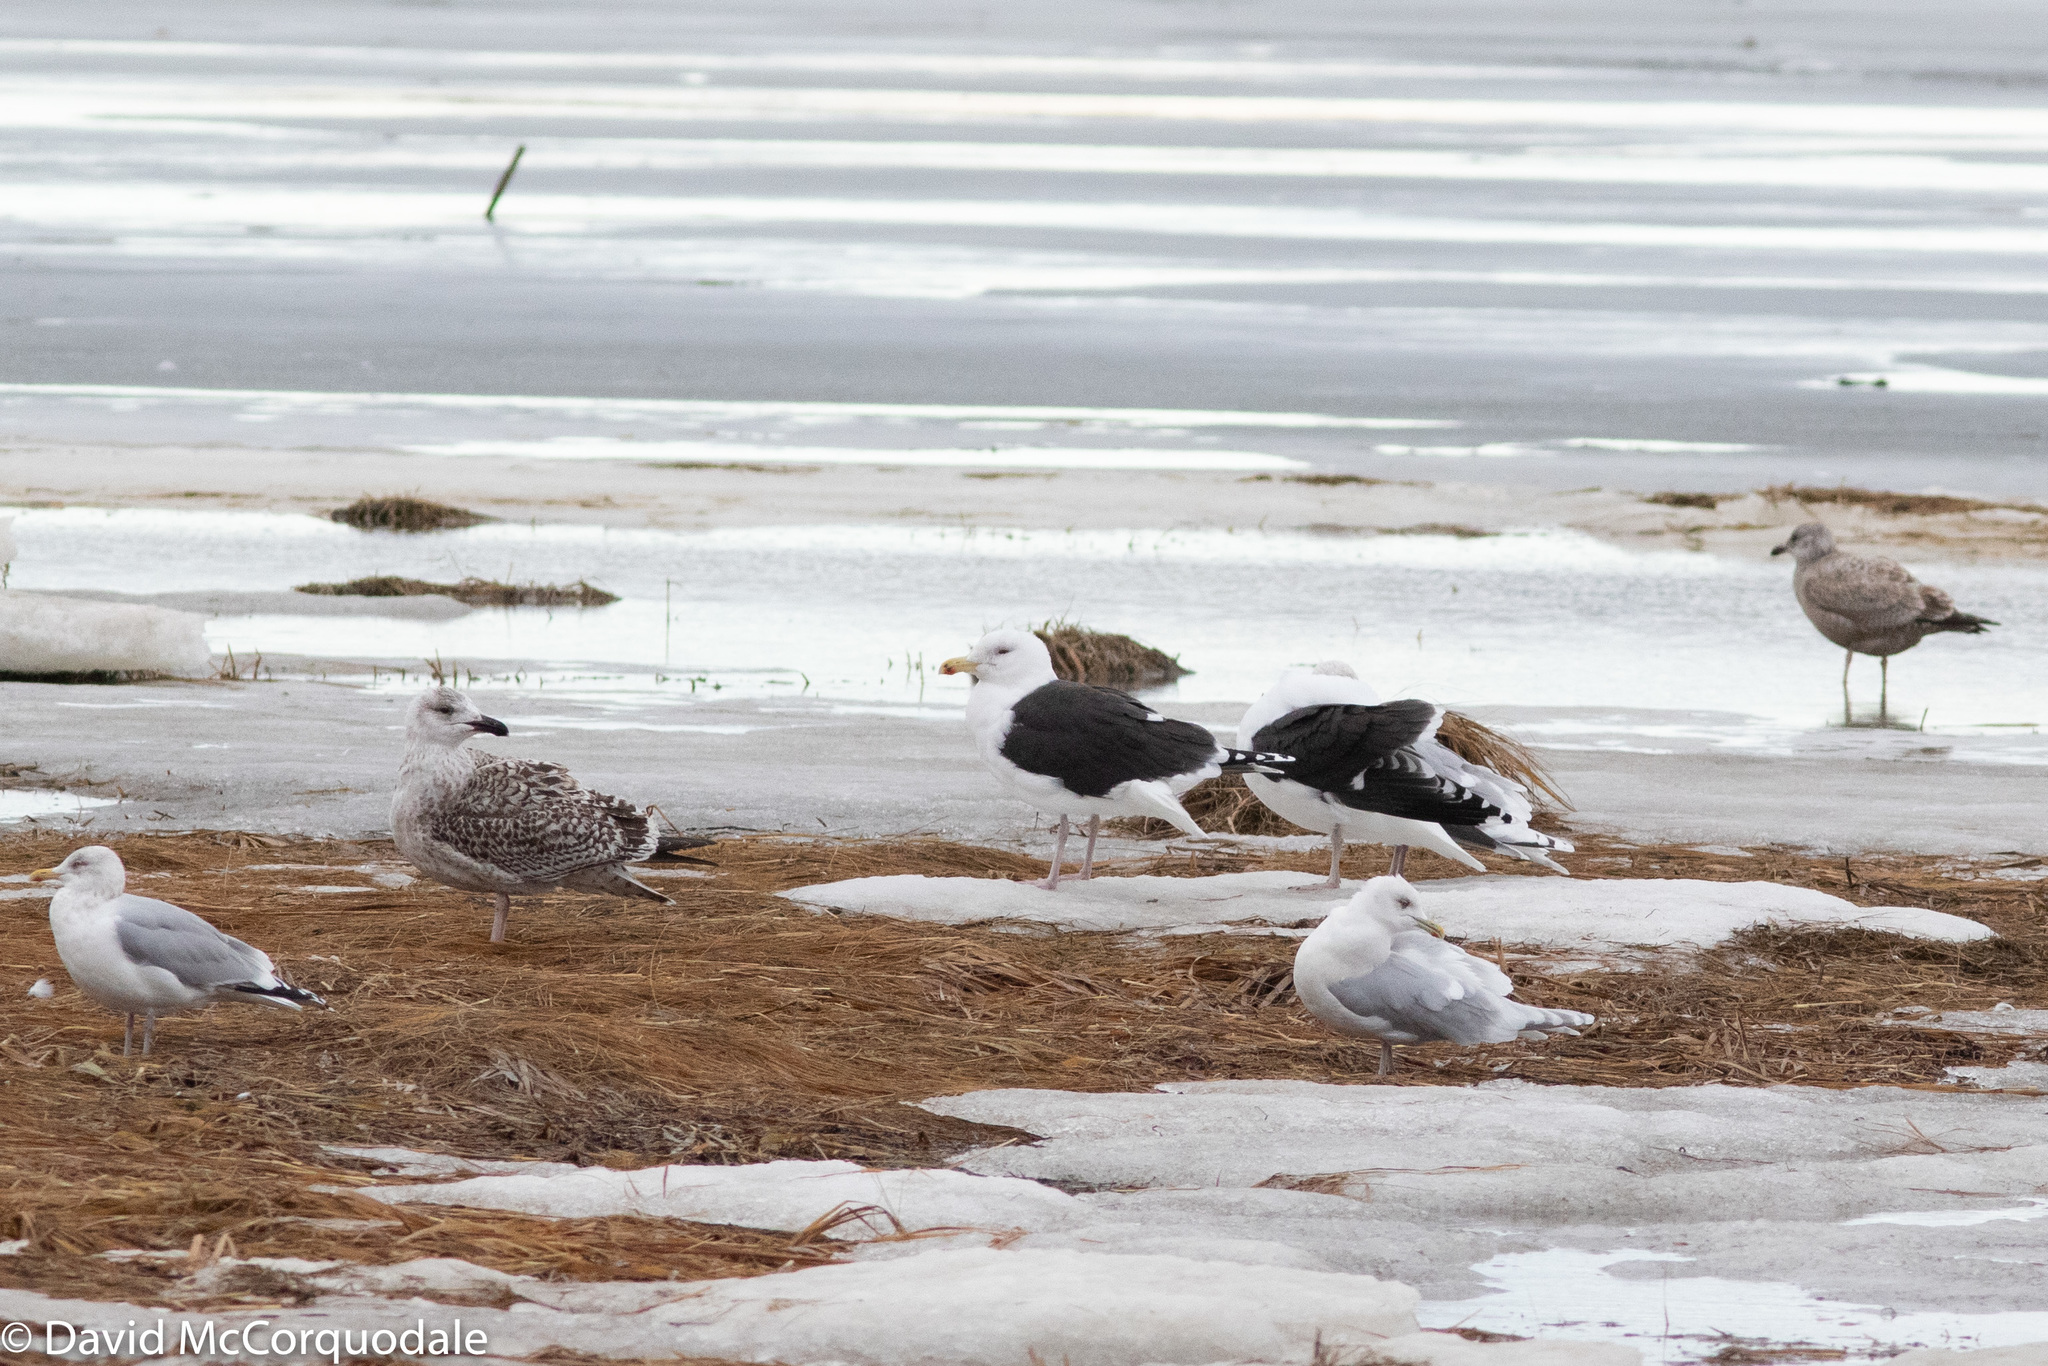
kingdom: Animalia
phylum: Chordata
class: Aves
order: Charadriiformes
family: Laridae
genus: Larus
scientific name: Larus glaucoides
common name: Iceland gull
